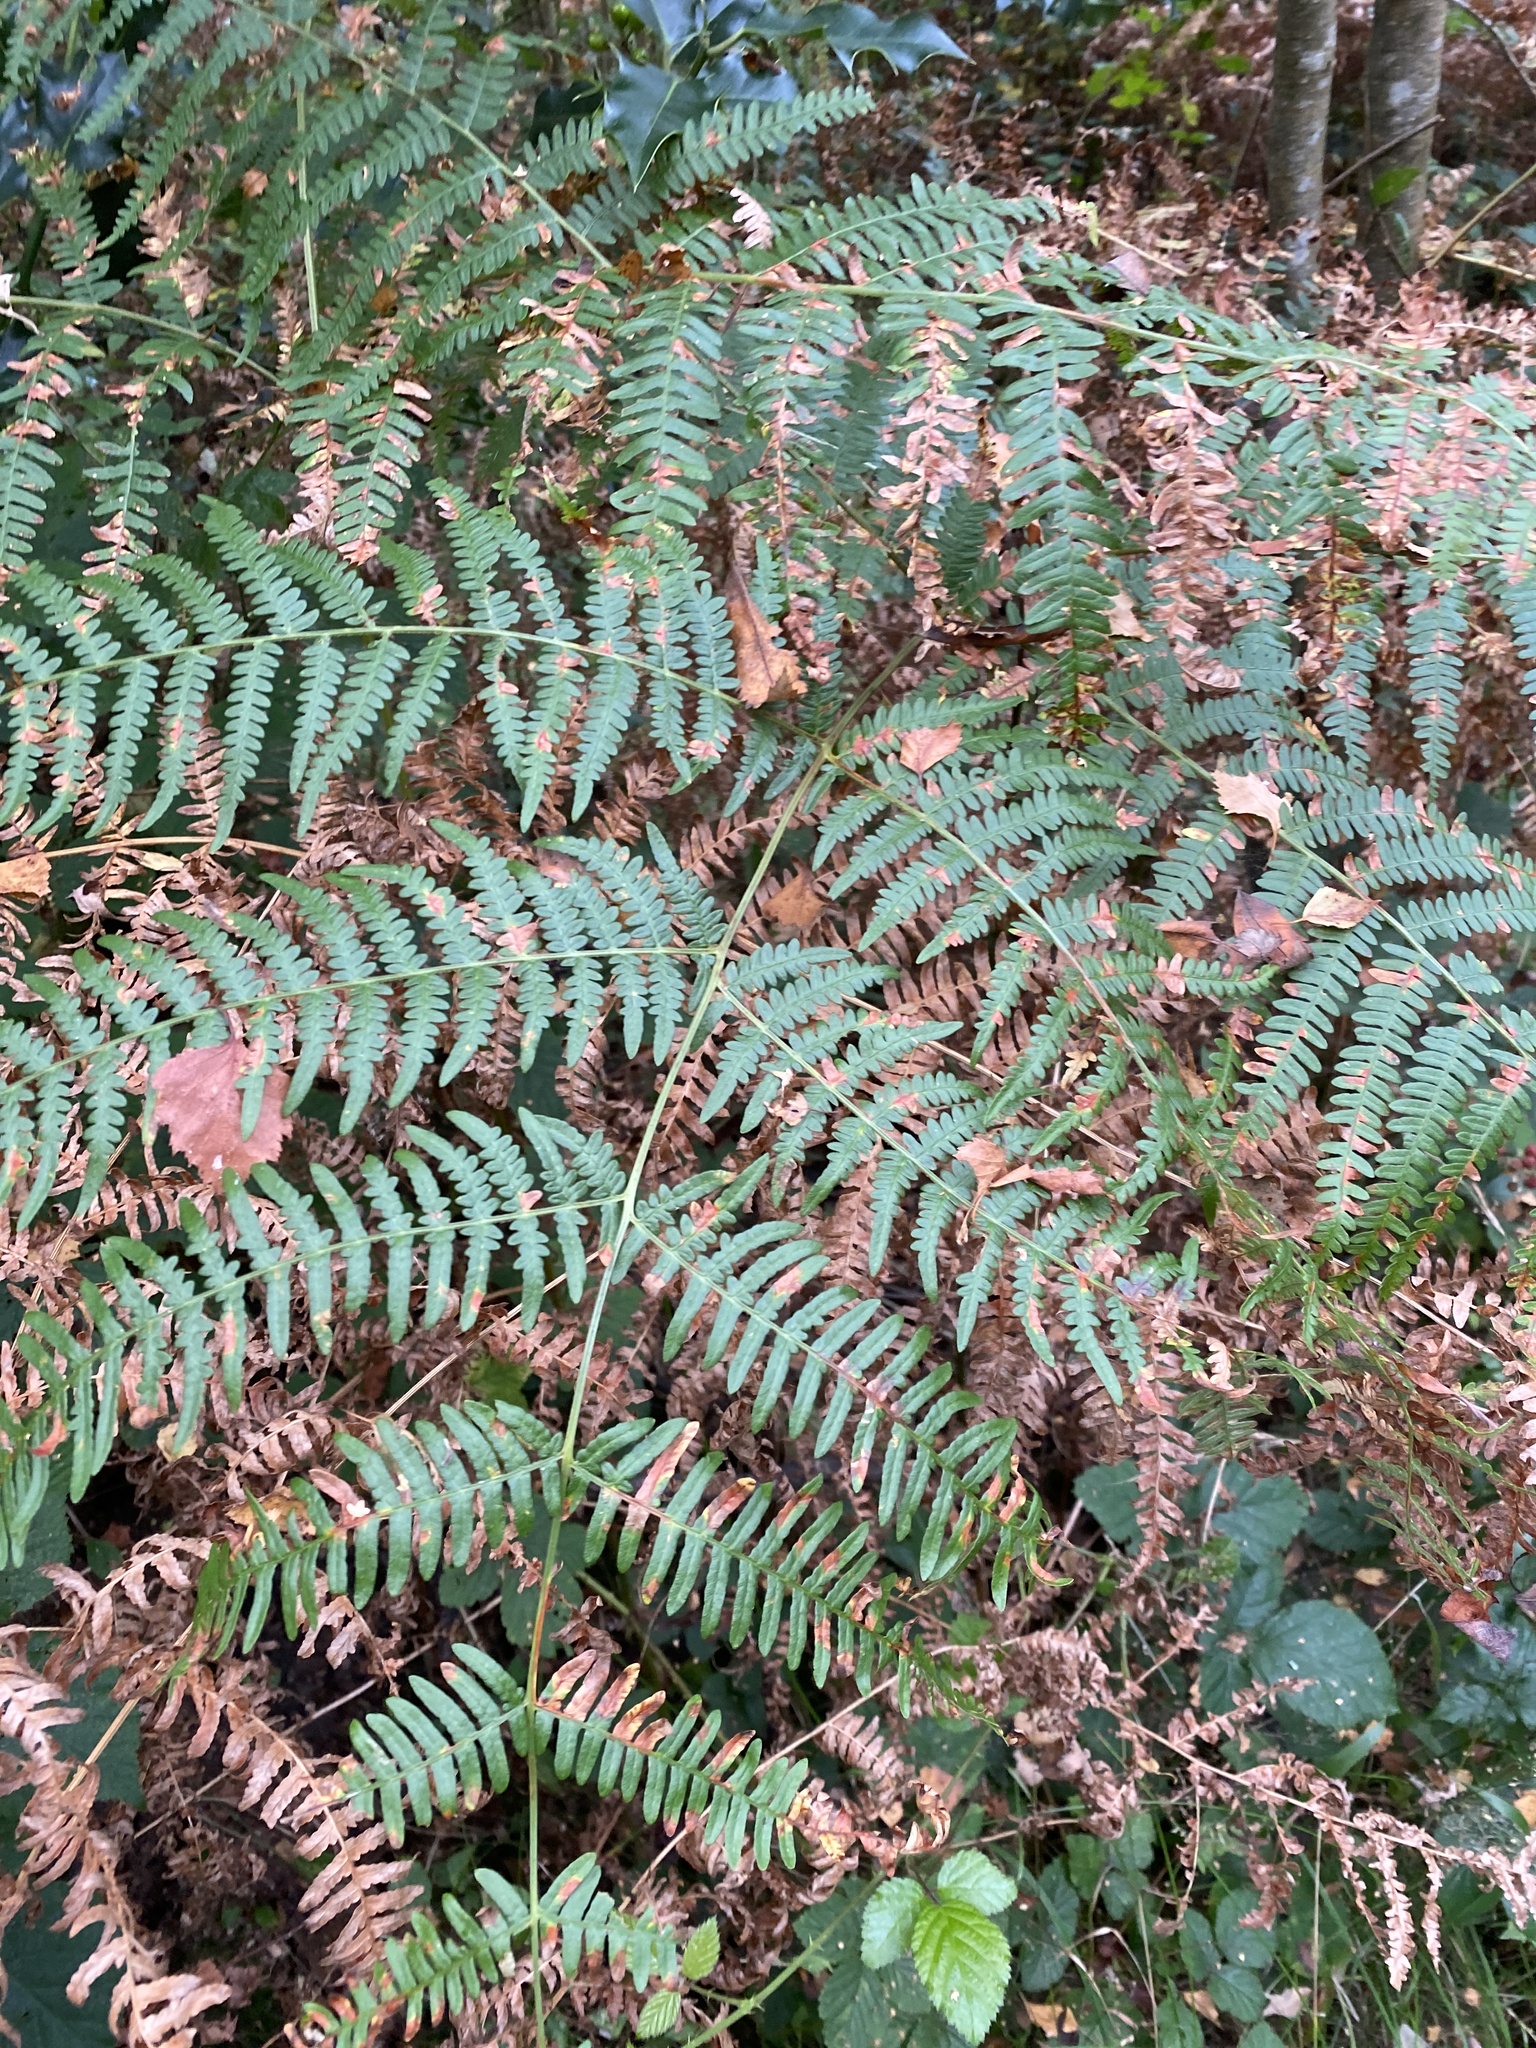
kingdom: Plantae
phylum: Tracheophyta
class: Polypodiopsida
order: Polypodiales
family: Dennstaedtiaceae
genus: Pteridium
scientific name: Pteridium aquilinum
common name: Bracken
